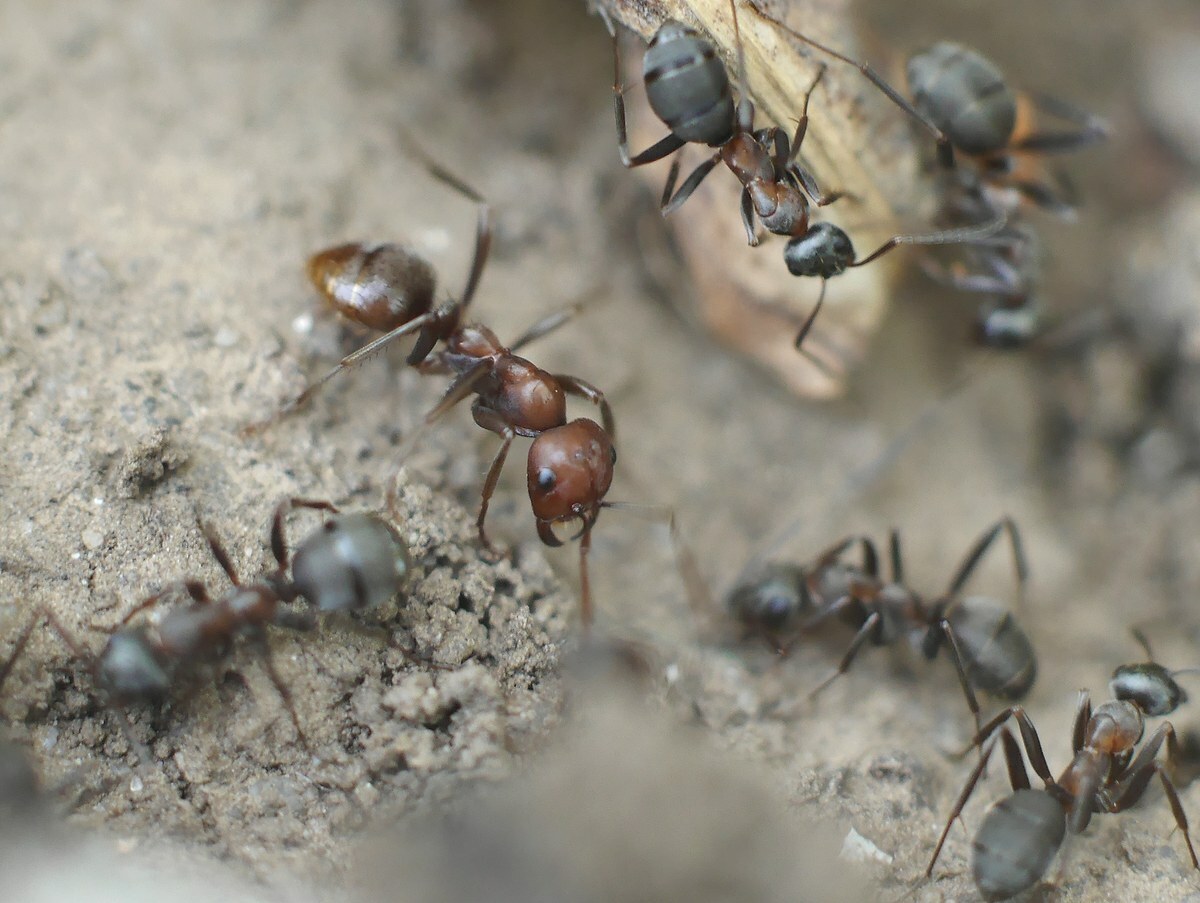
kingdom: Animalia
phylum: Arthropoda
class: Insecta
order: Hymenoptera
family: Formicidae
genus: Polyergus
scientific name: Polyergus rufescens
